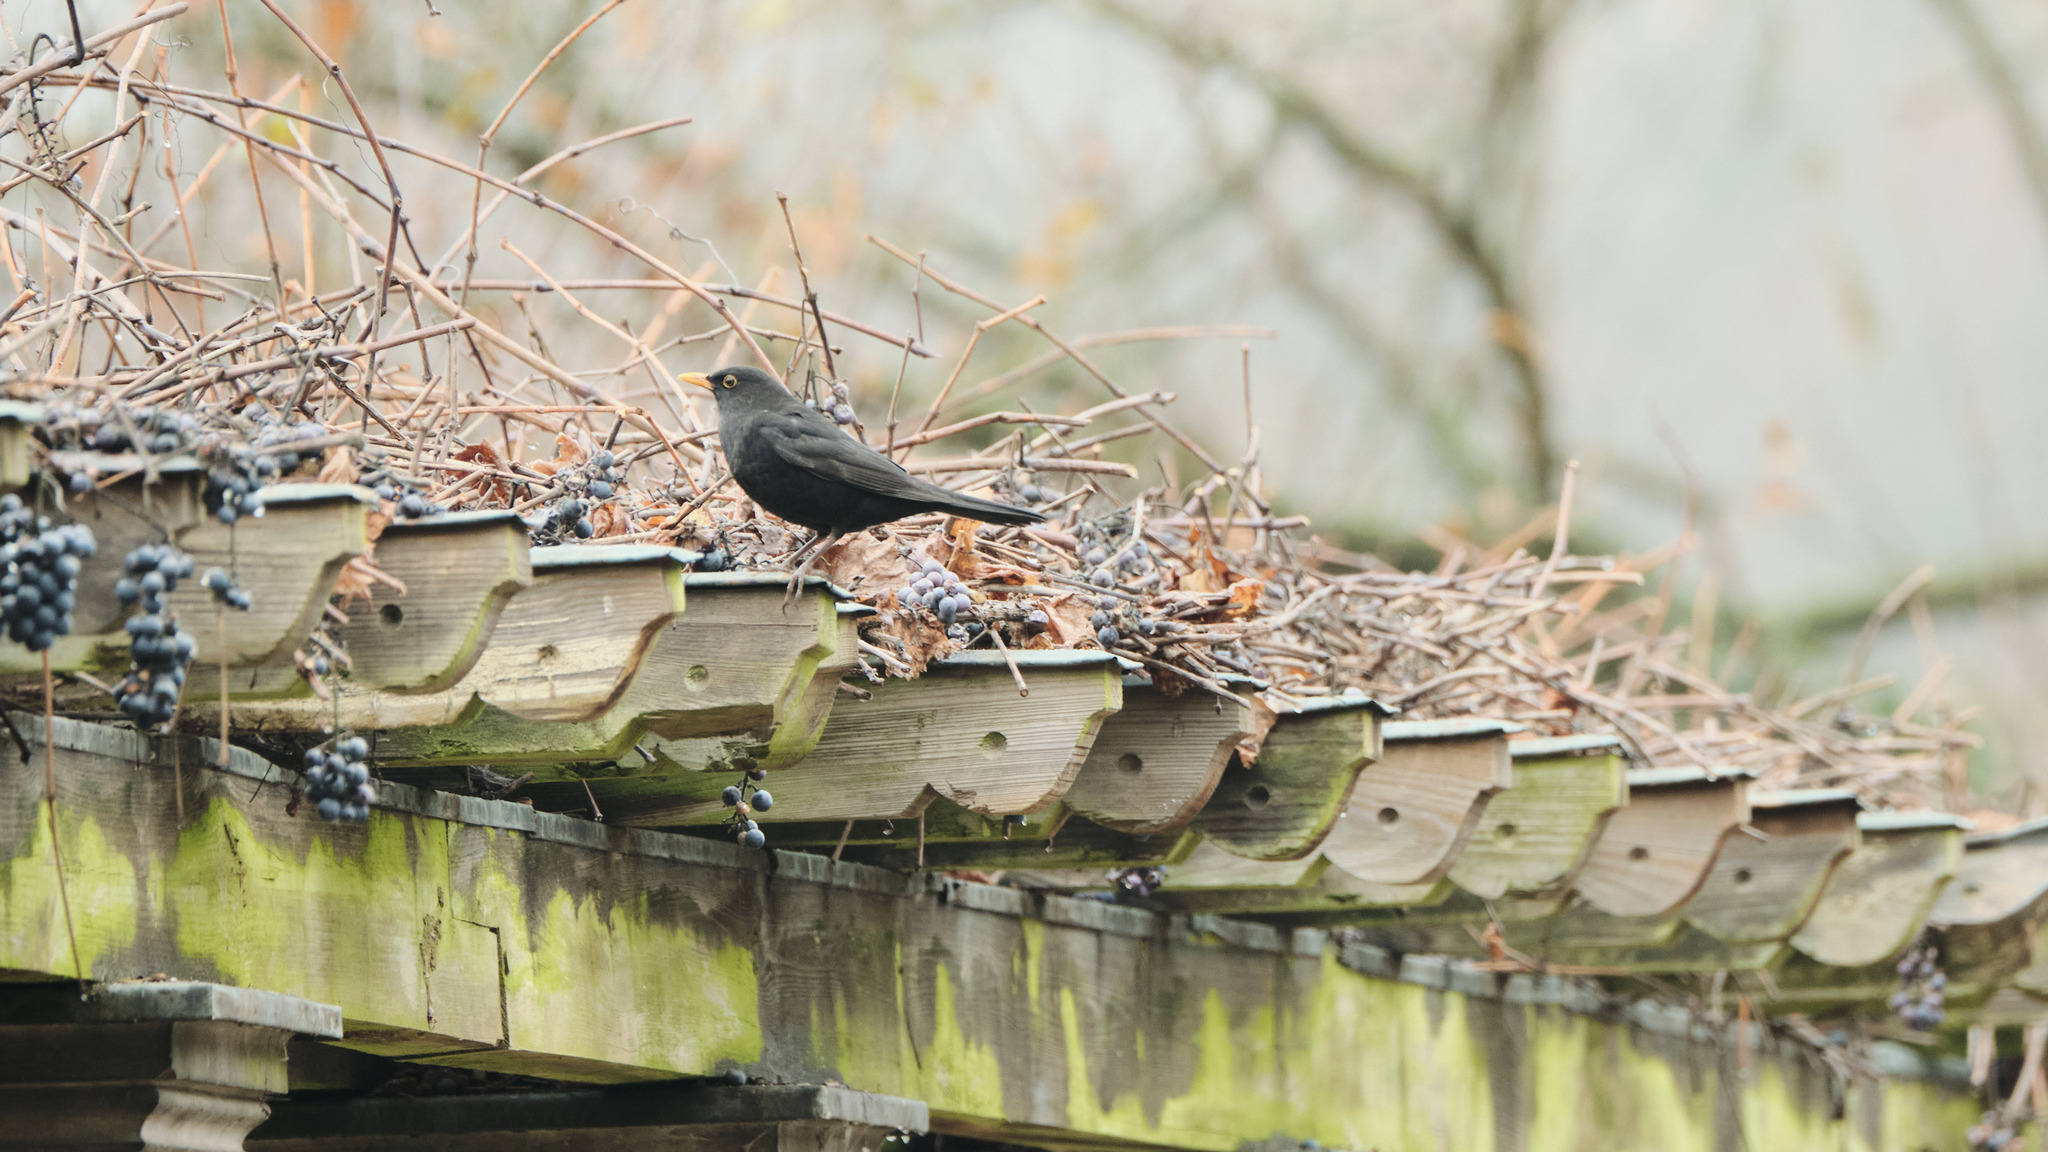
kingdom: Animalia
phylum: Chordata
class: Aves
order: Passeriformes
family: Turdidae
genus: Turdus
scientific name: Turdus merula
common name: Common blackbird
